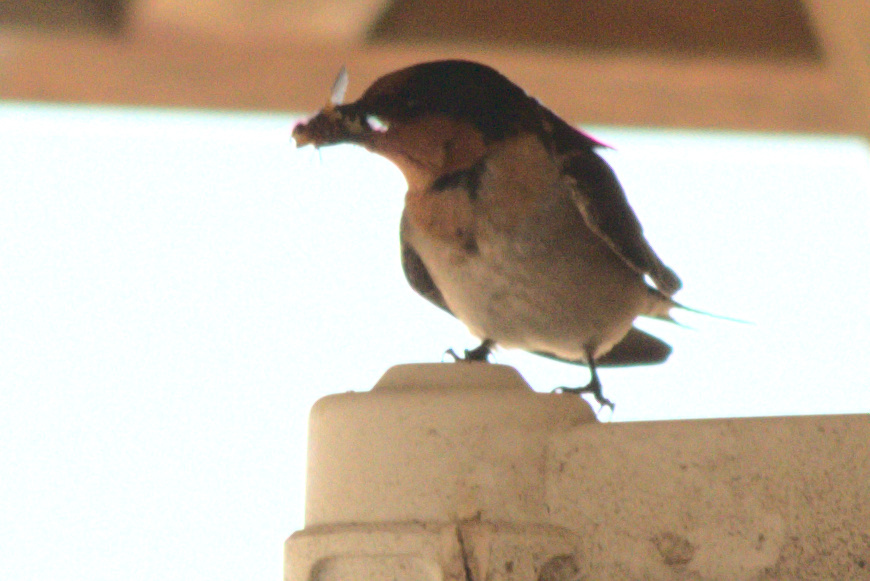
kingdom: Animalia
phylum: Chordata
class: Aves
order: Passeriformes
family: Hirundinidae
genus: Hirundo
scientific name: Hirundo neoxena
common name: Welcome swallow
